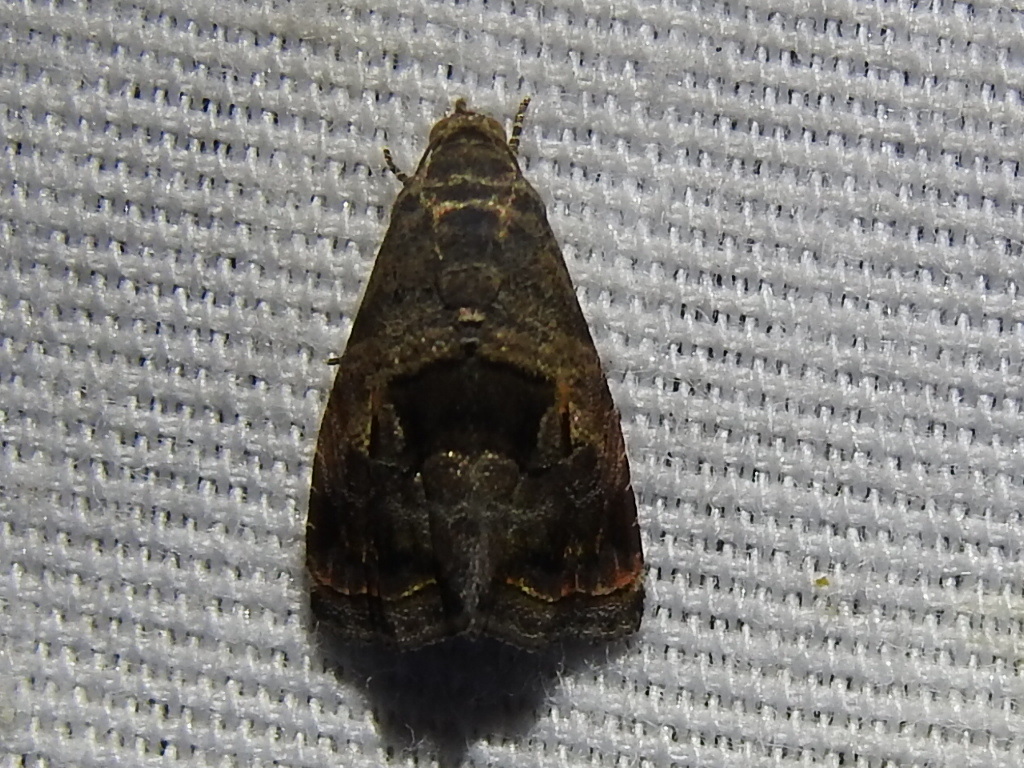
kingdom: Animalia
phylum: Arthropoda
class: Insecta
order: Lepidoptera
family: Noctuidae
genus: Tripudia
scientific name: Tripudia quadrifera
